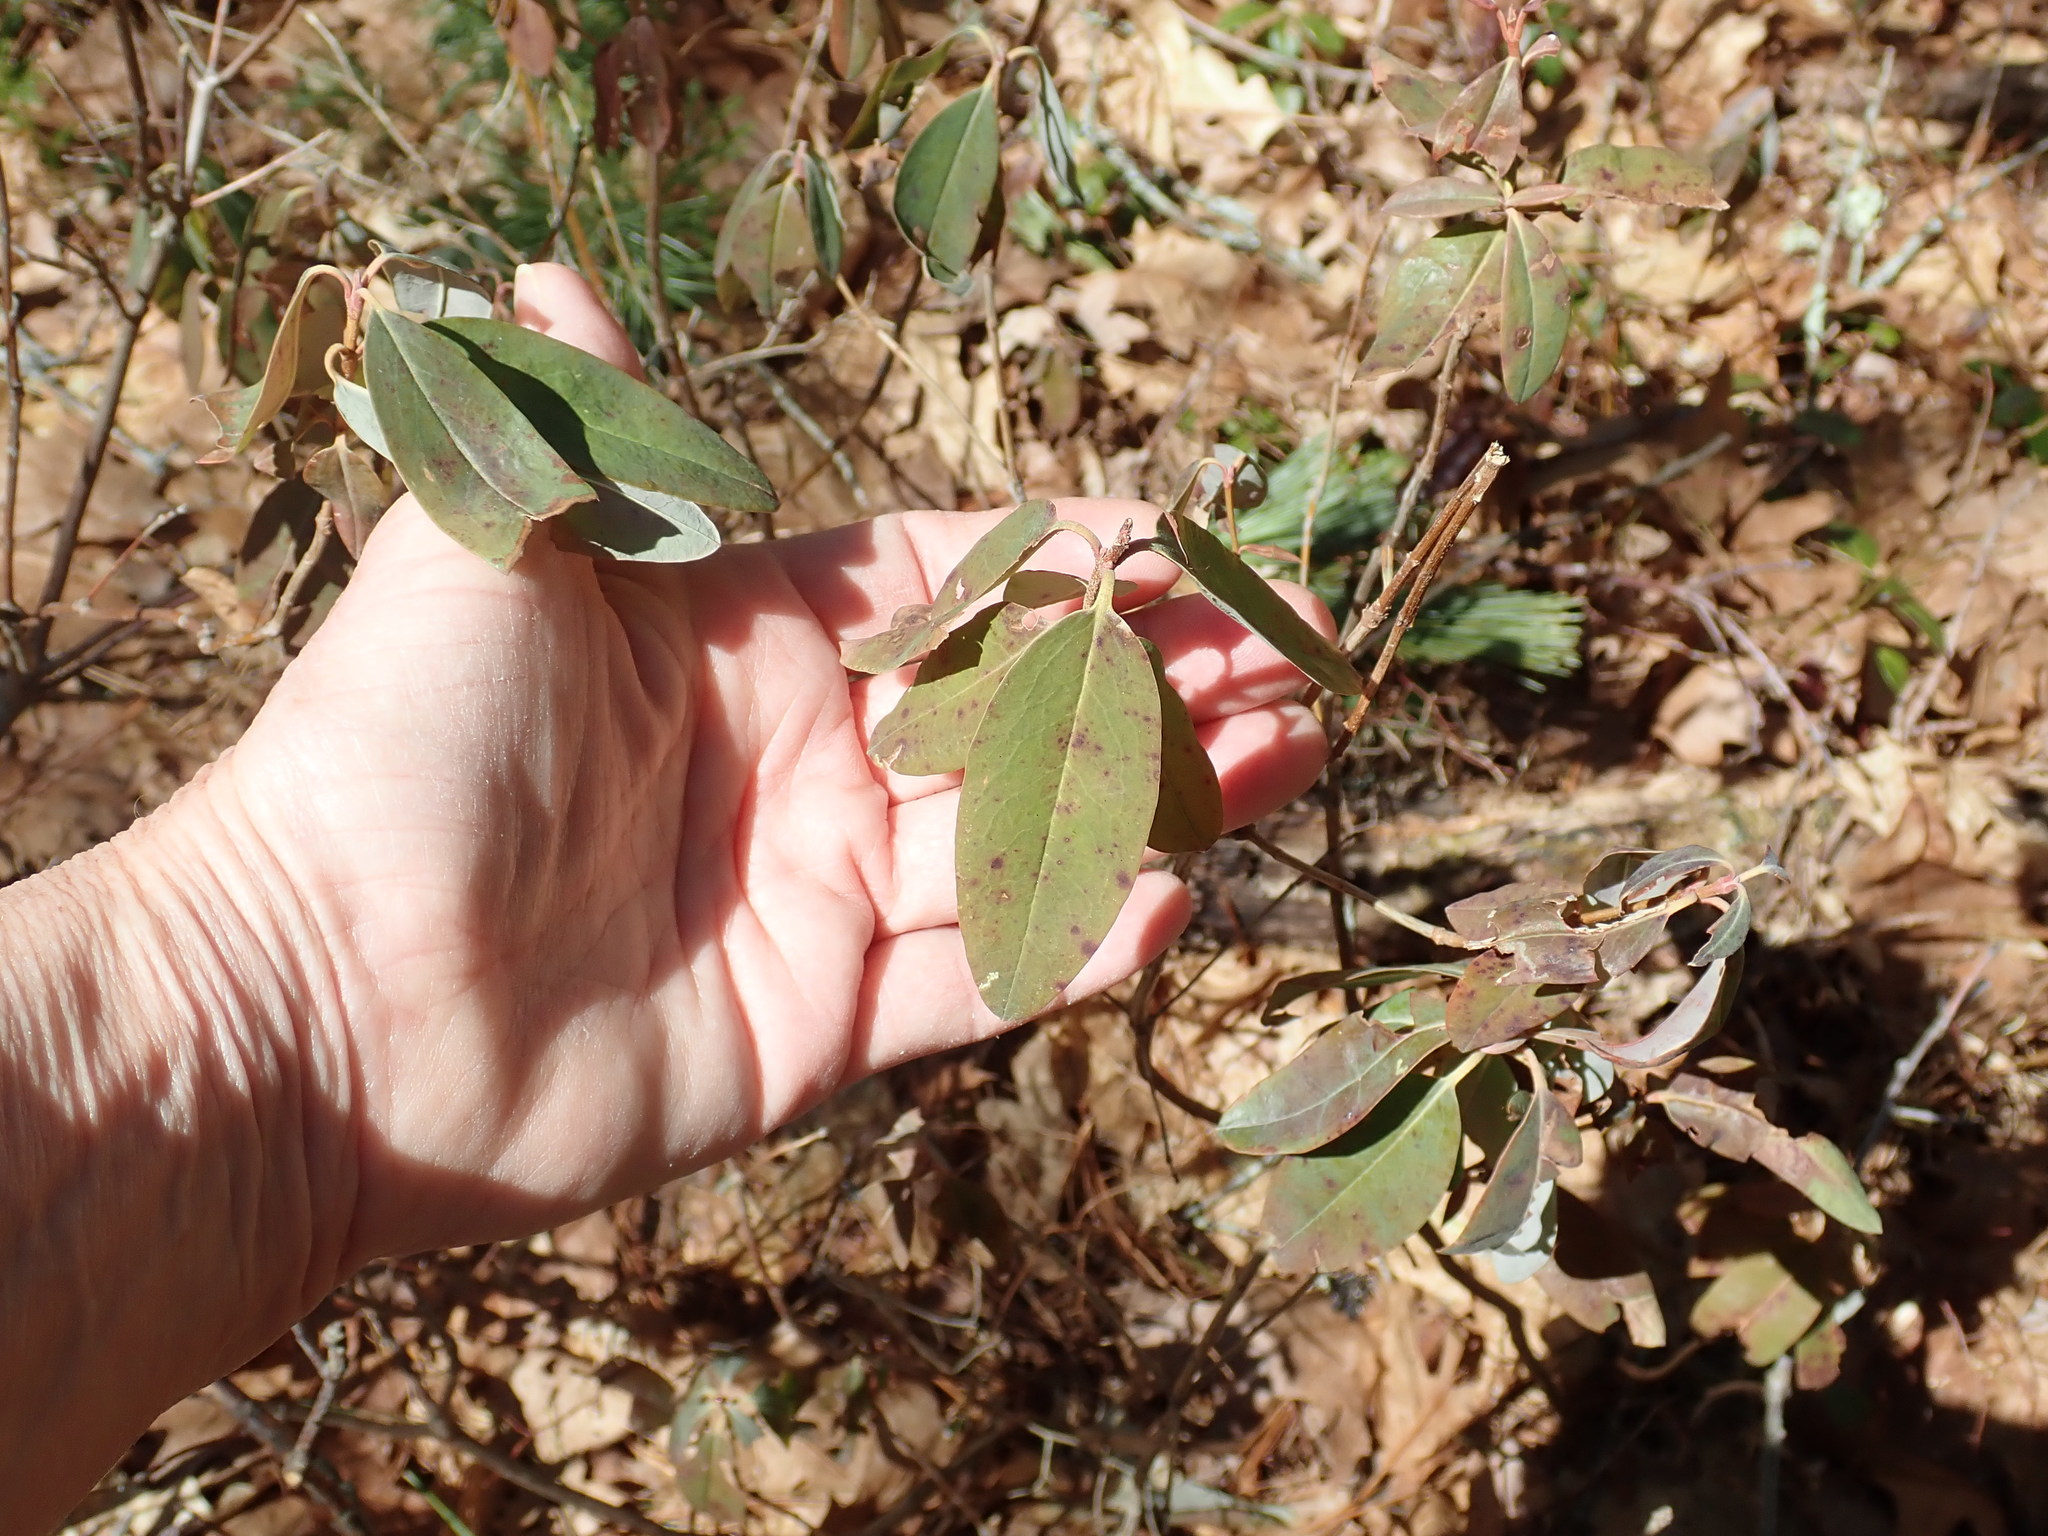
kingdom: Plantae
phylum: Tracheophyta
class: Magnoliopsida
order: Ericales
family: Ericaceae
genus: Kalmia
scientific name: Kalmia angustifolia
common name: Sheep-laurel
